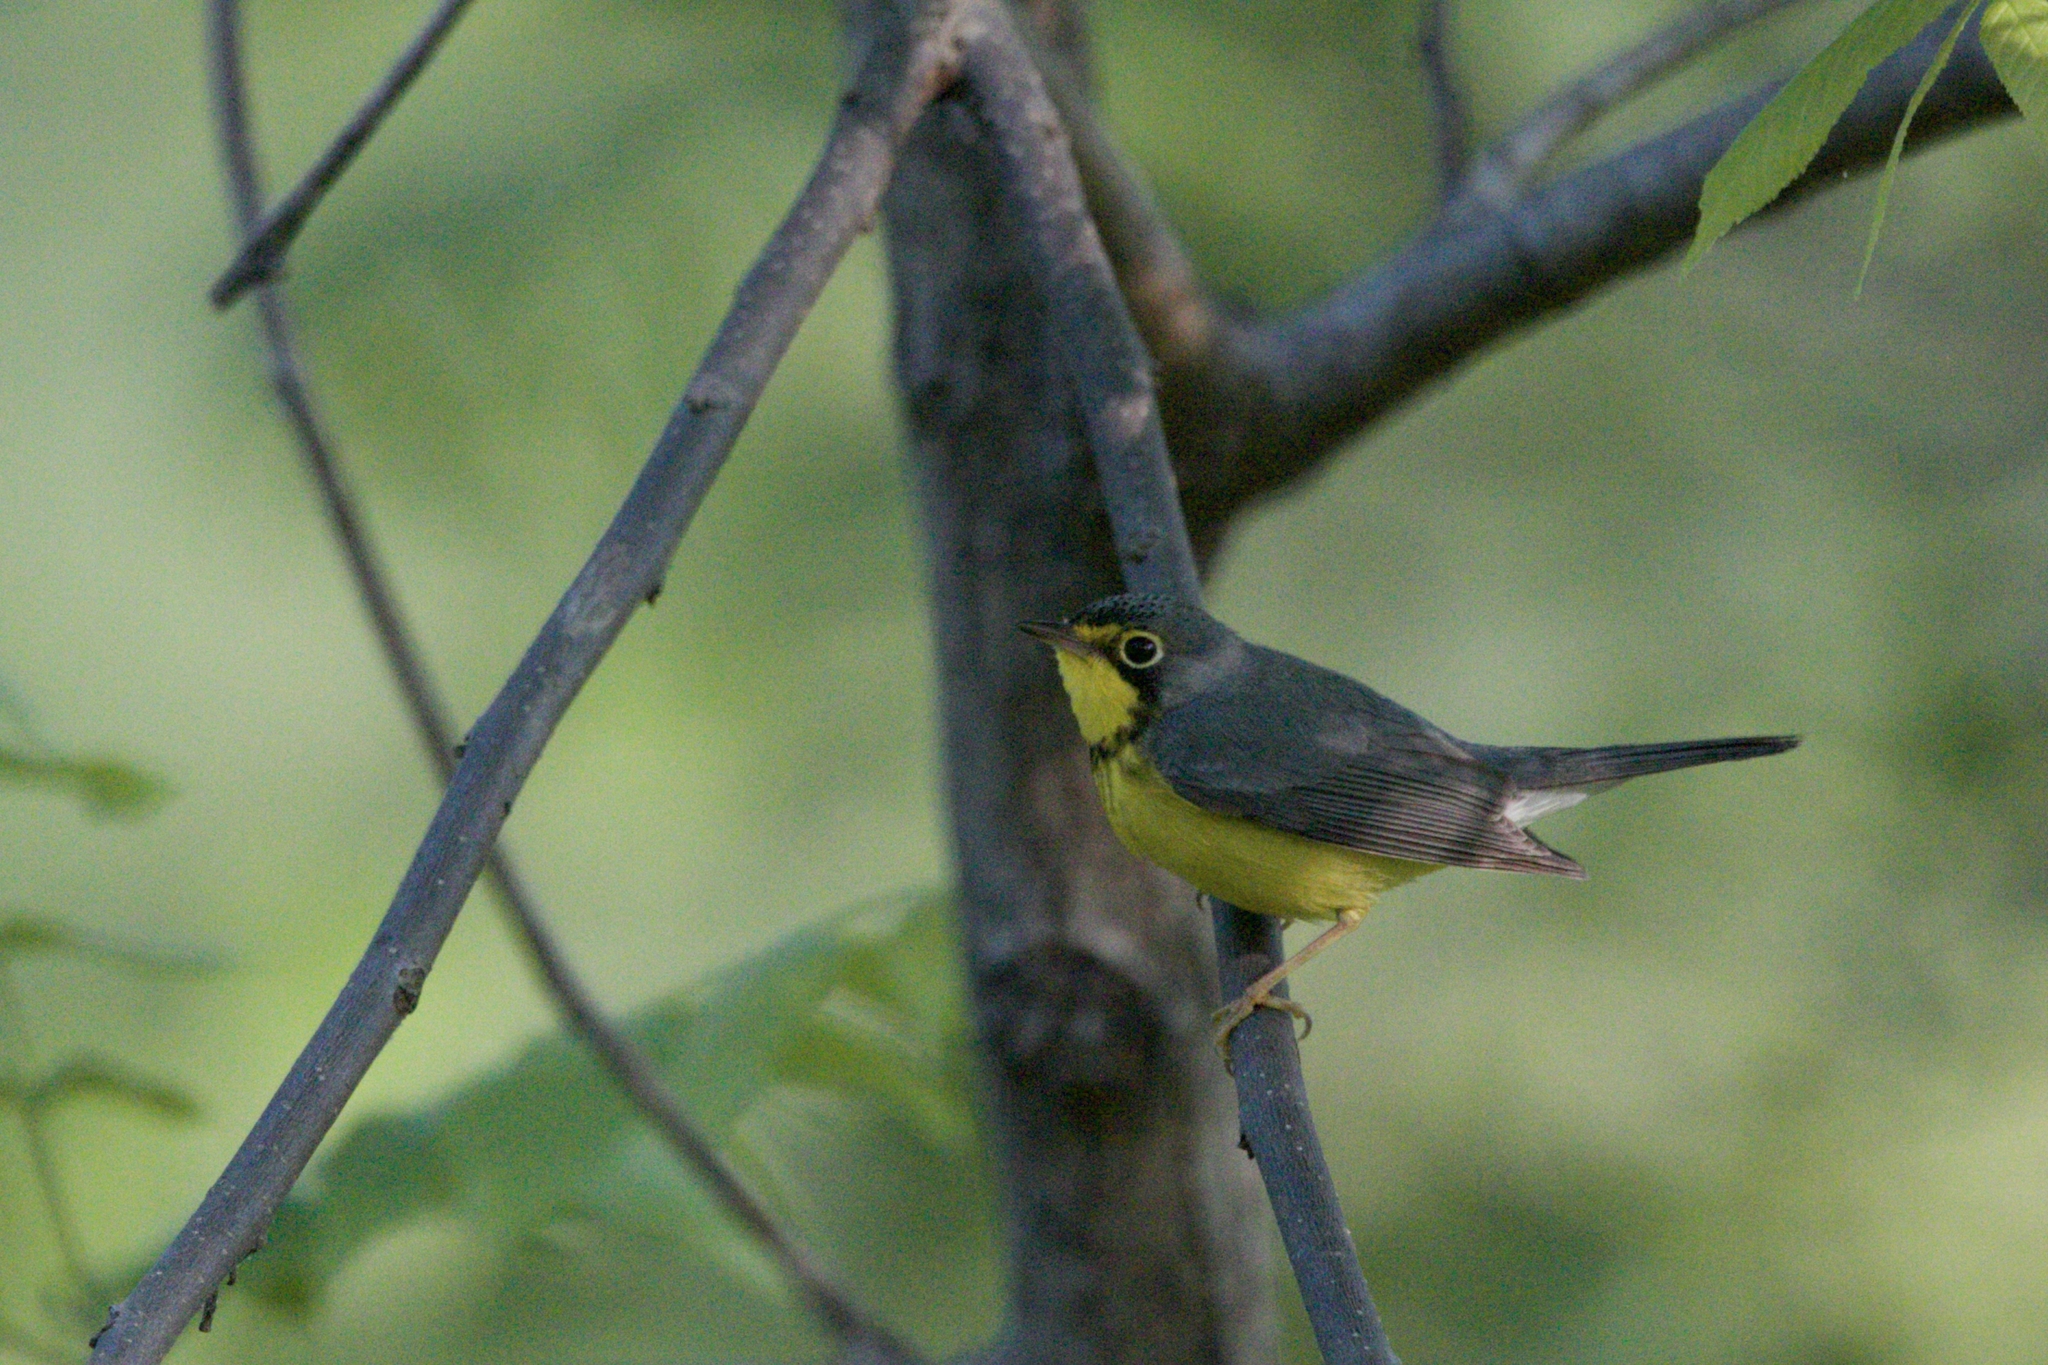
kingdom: Animalia
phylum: Chordata
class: Aves
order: Passeriformes
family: Parulidae
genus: Cardellina
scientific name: Cardellina canadensis
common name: Canada warbler
